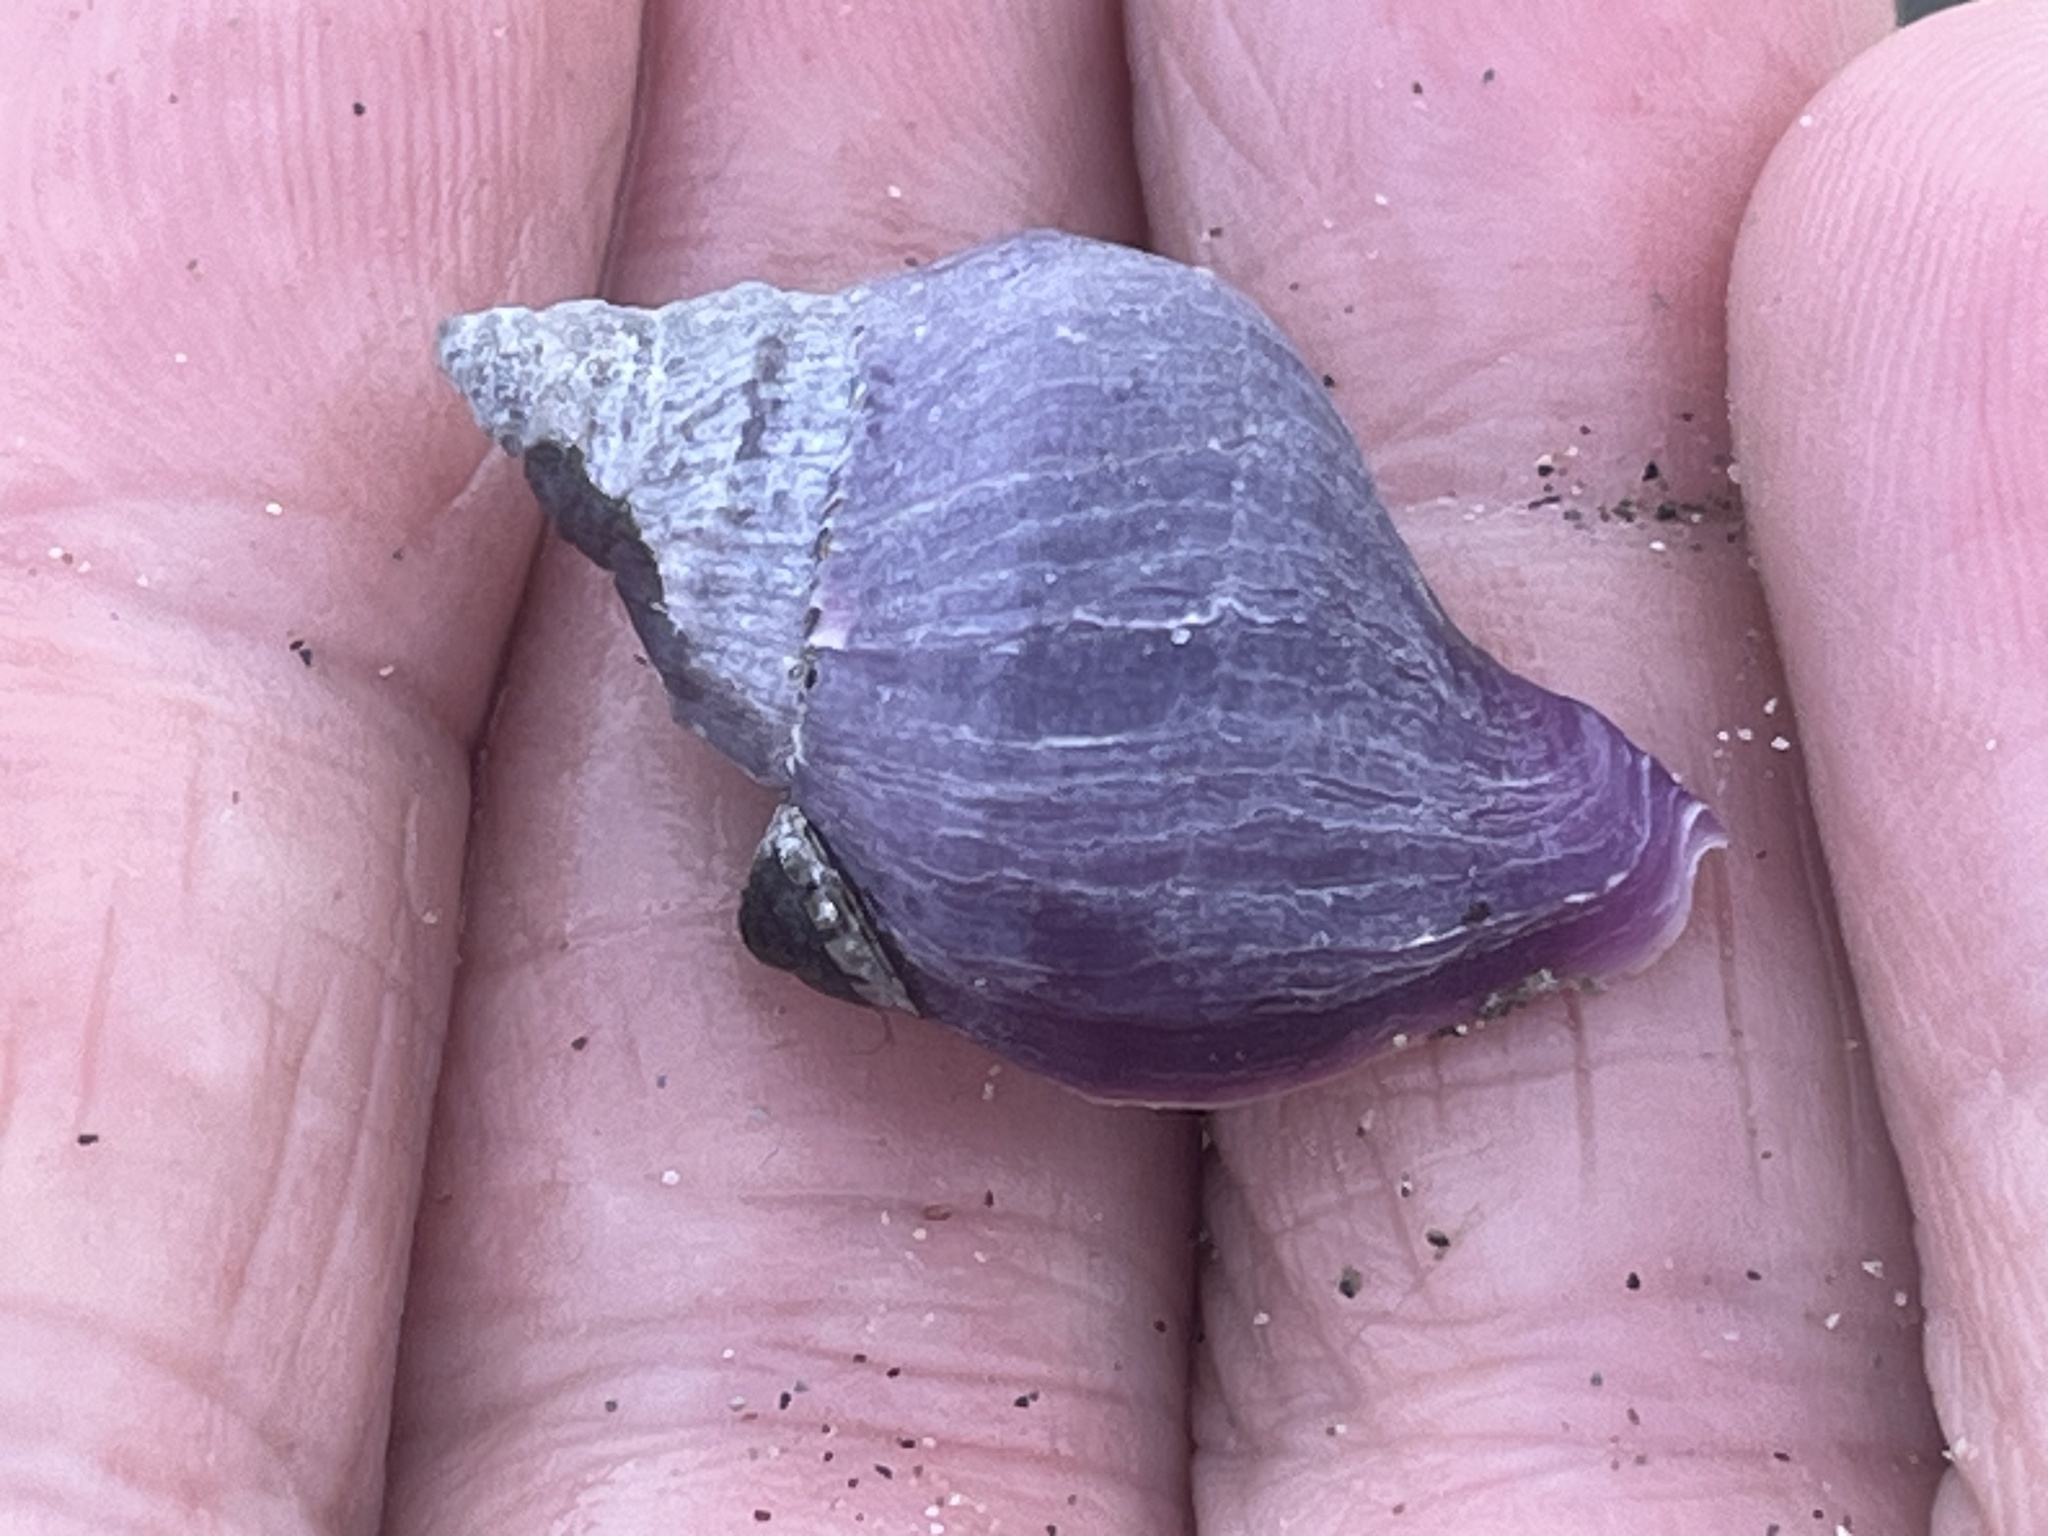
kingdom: Animalia
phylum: Mollusca
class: Gastropoda
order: Neogastropoda
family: Muricidae
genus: Nucella
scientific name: Nucella lamellosa
